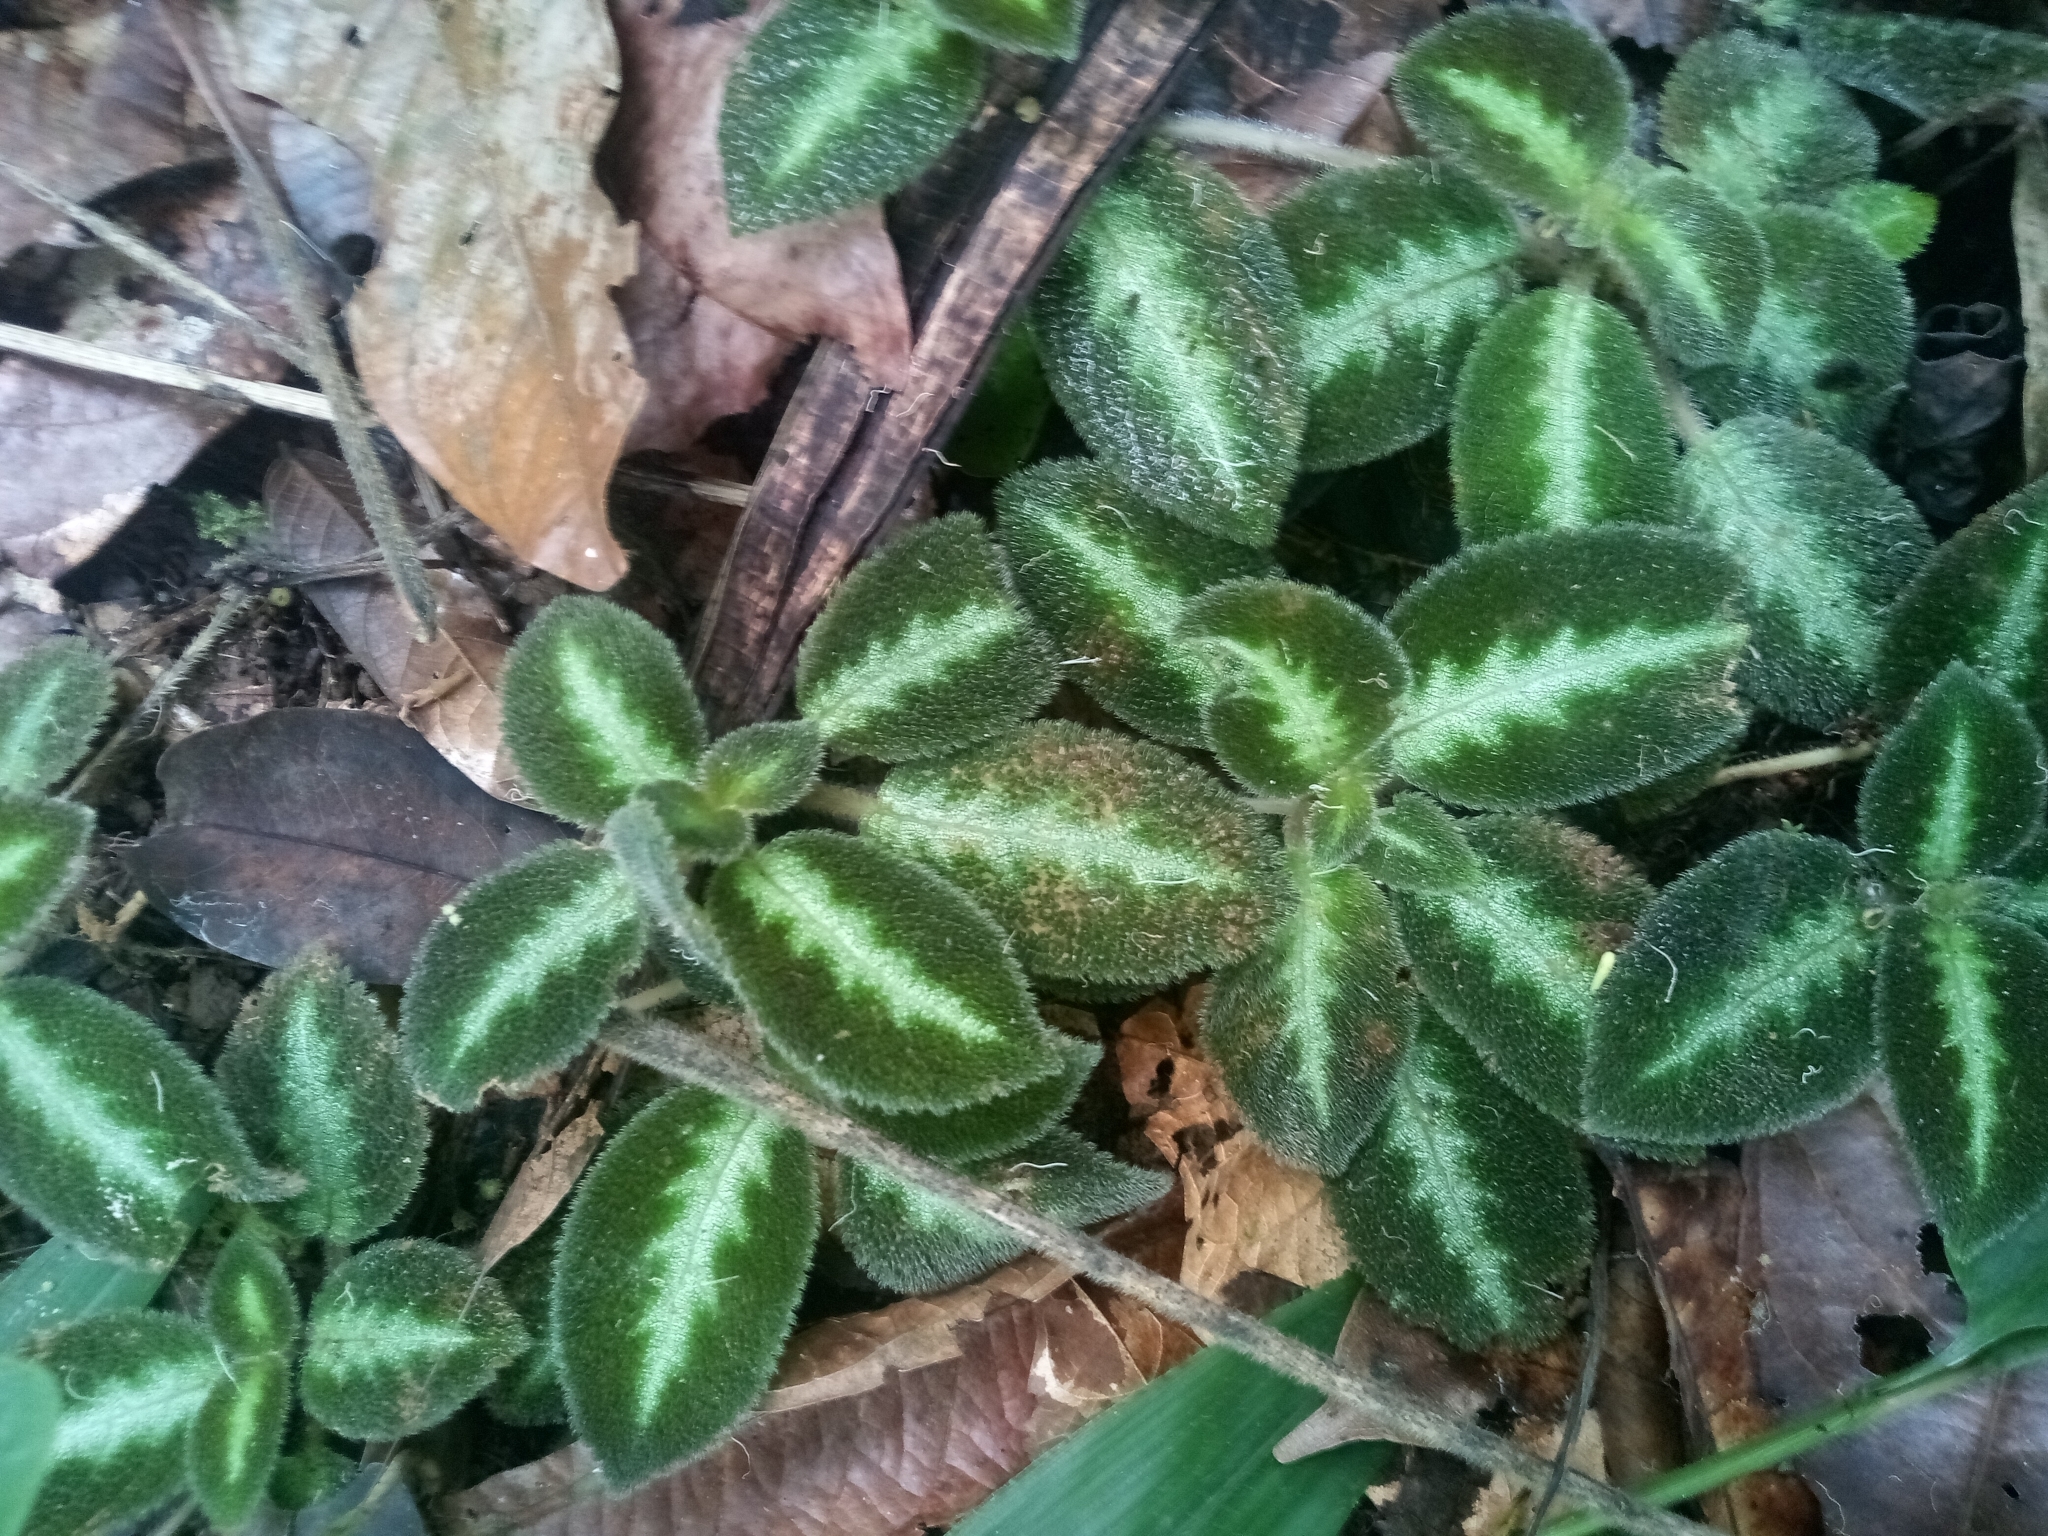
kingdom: Plantae
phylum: Tracheophyta
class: Magnoliopsida
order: Lamiales
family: Gesneriaceae
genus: Episcia
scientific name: Episcia lilacina
